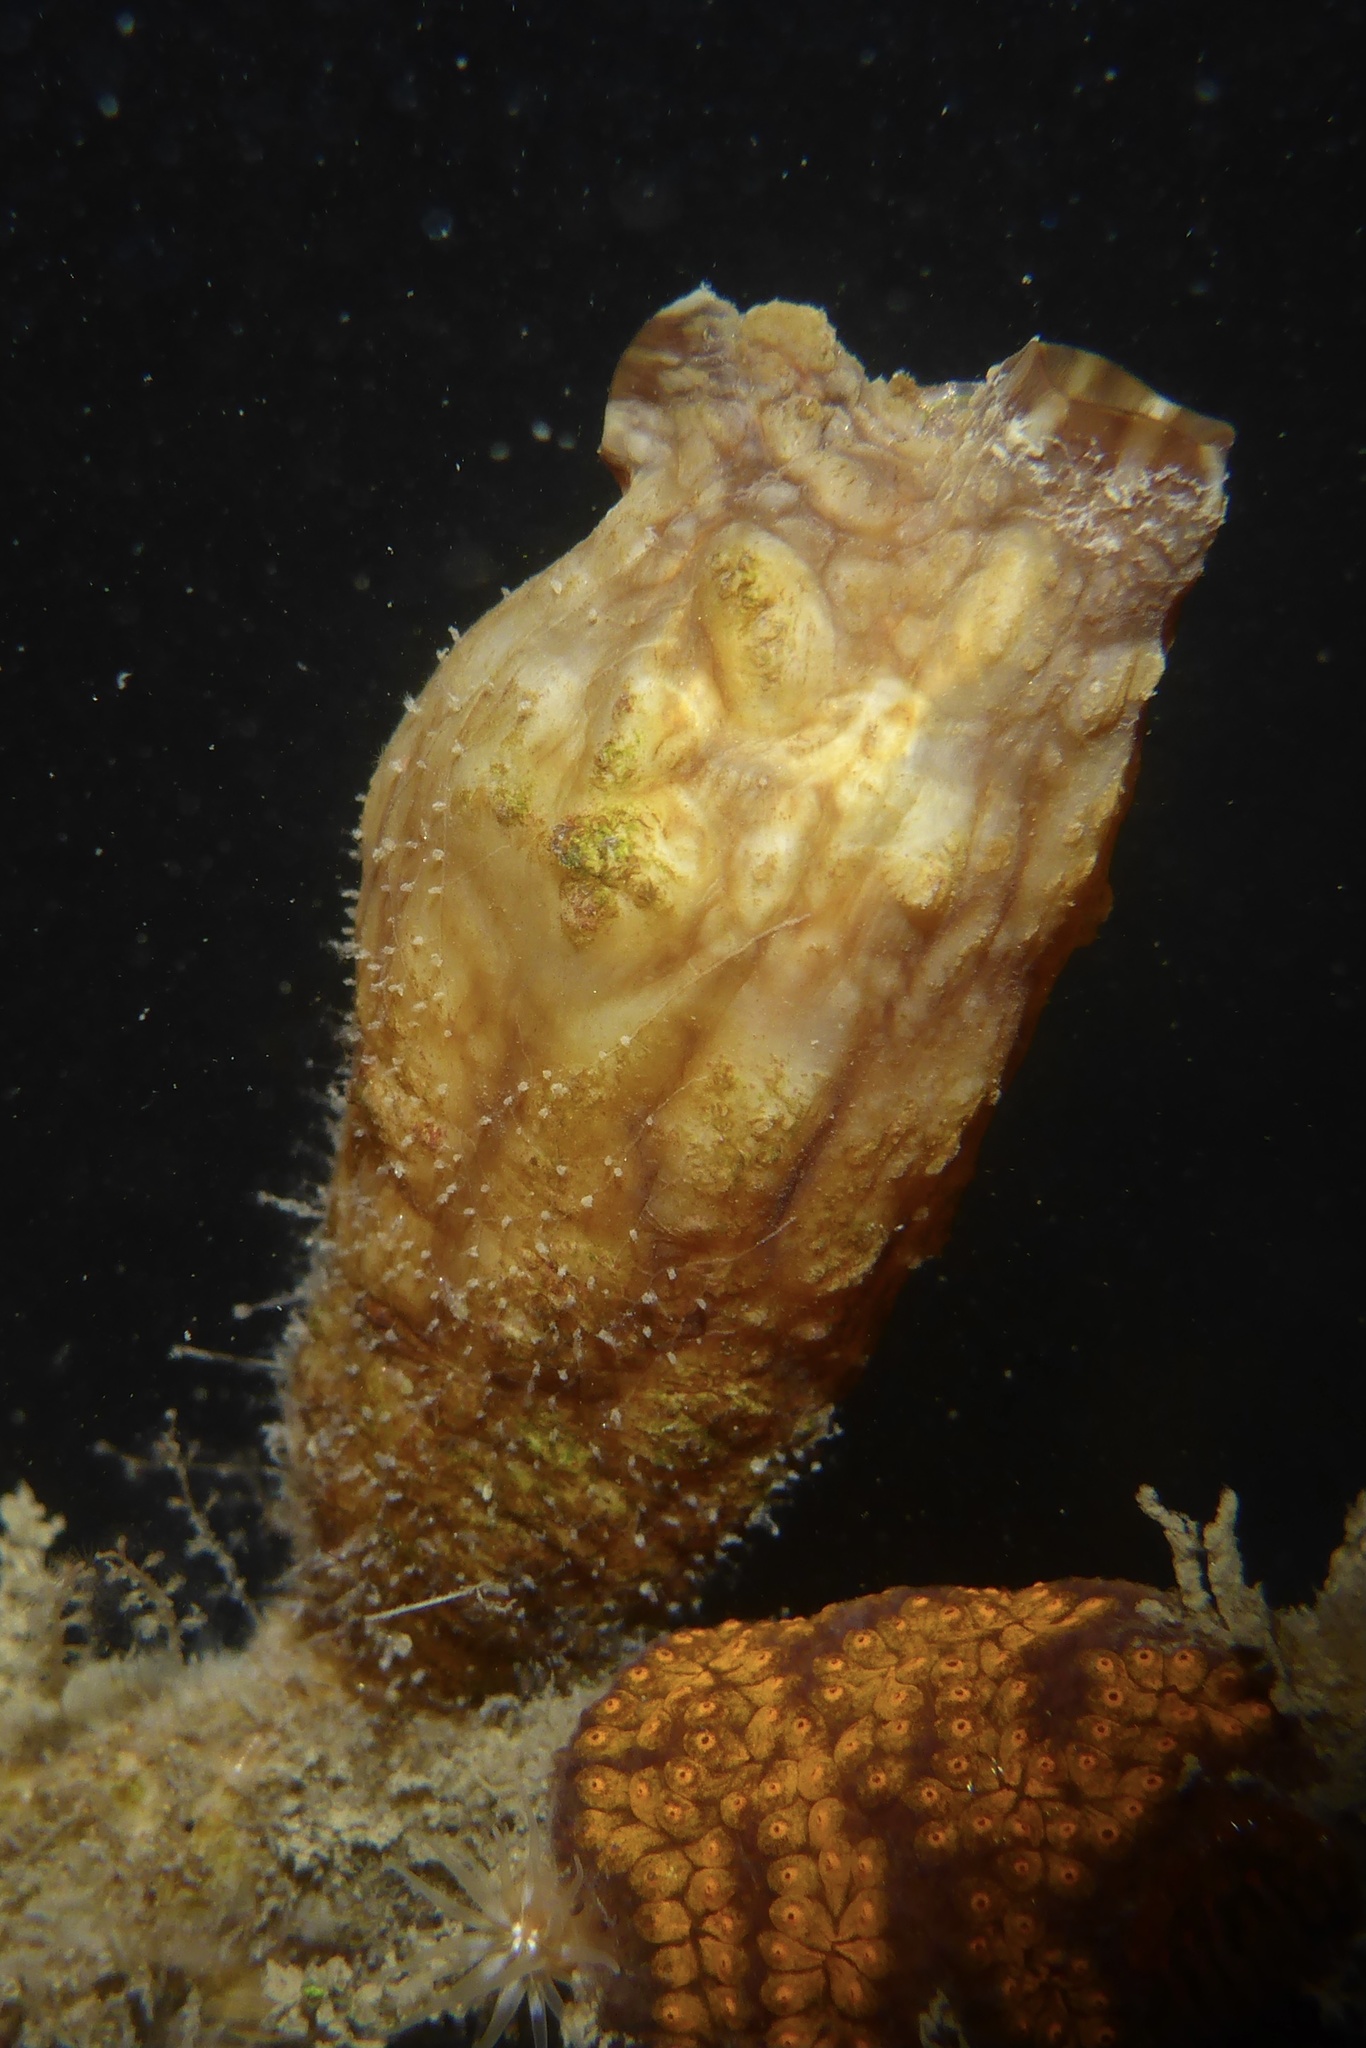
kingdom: Animalia
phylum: Chordata
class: Ascidiacea
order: Stolidobranchia
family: Styelidae
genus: Styela
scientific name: Styela clava
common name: Leathery sea squirt
